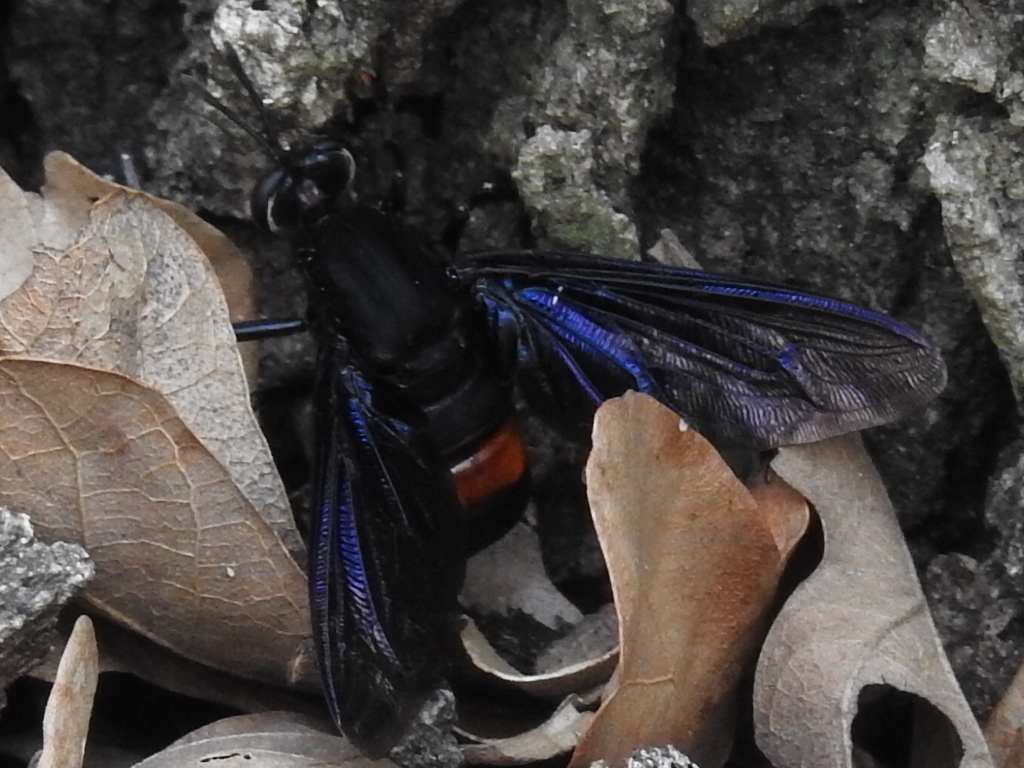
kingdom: Animalia
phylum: Arthropoda
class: Insecta
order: Diptera
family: Mydidae
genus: Mydas
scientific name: Mydas clavatus
